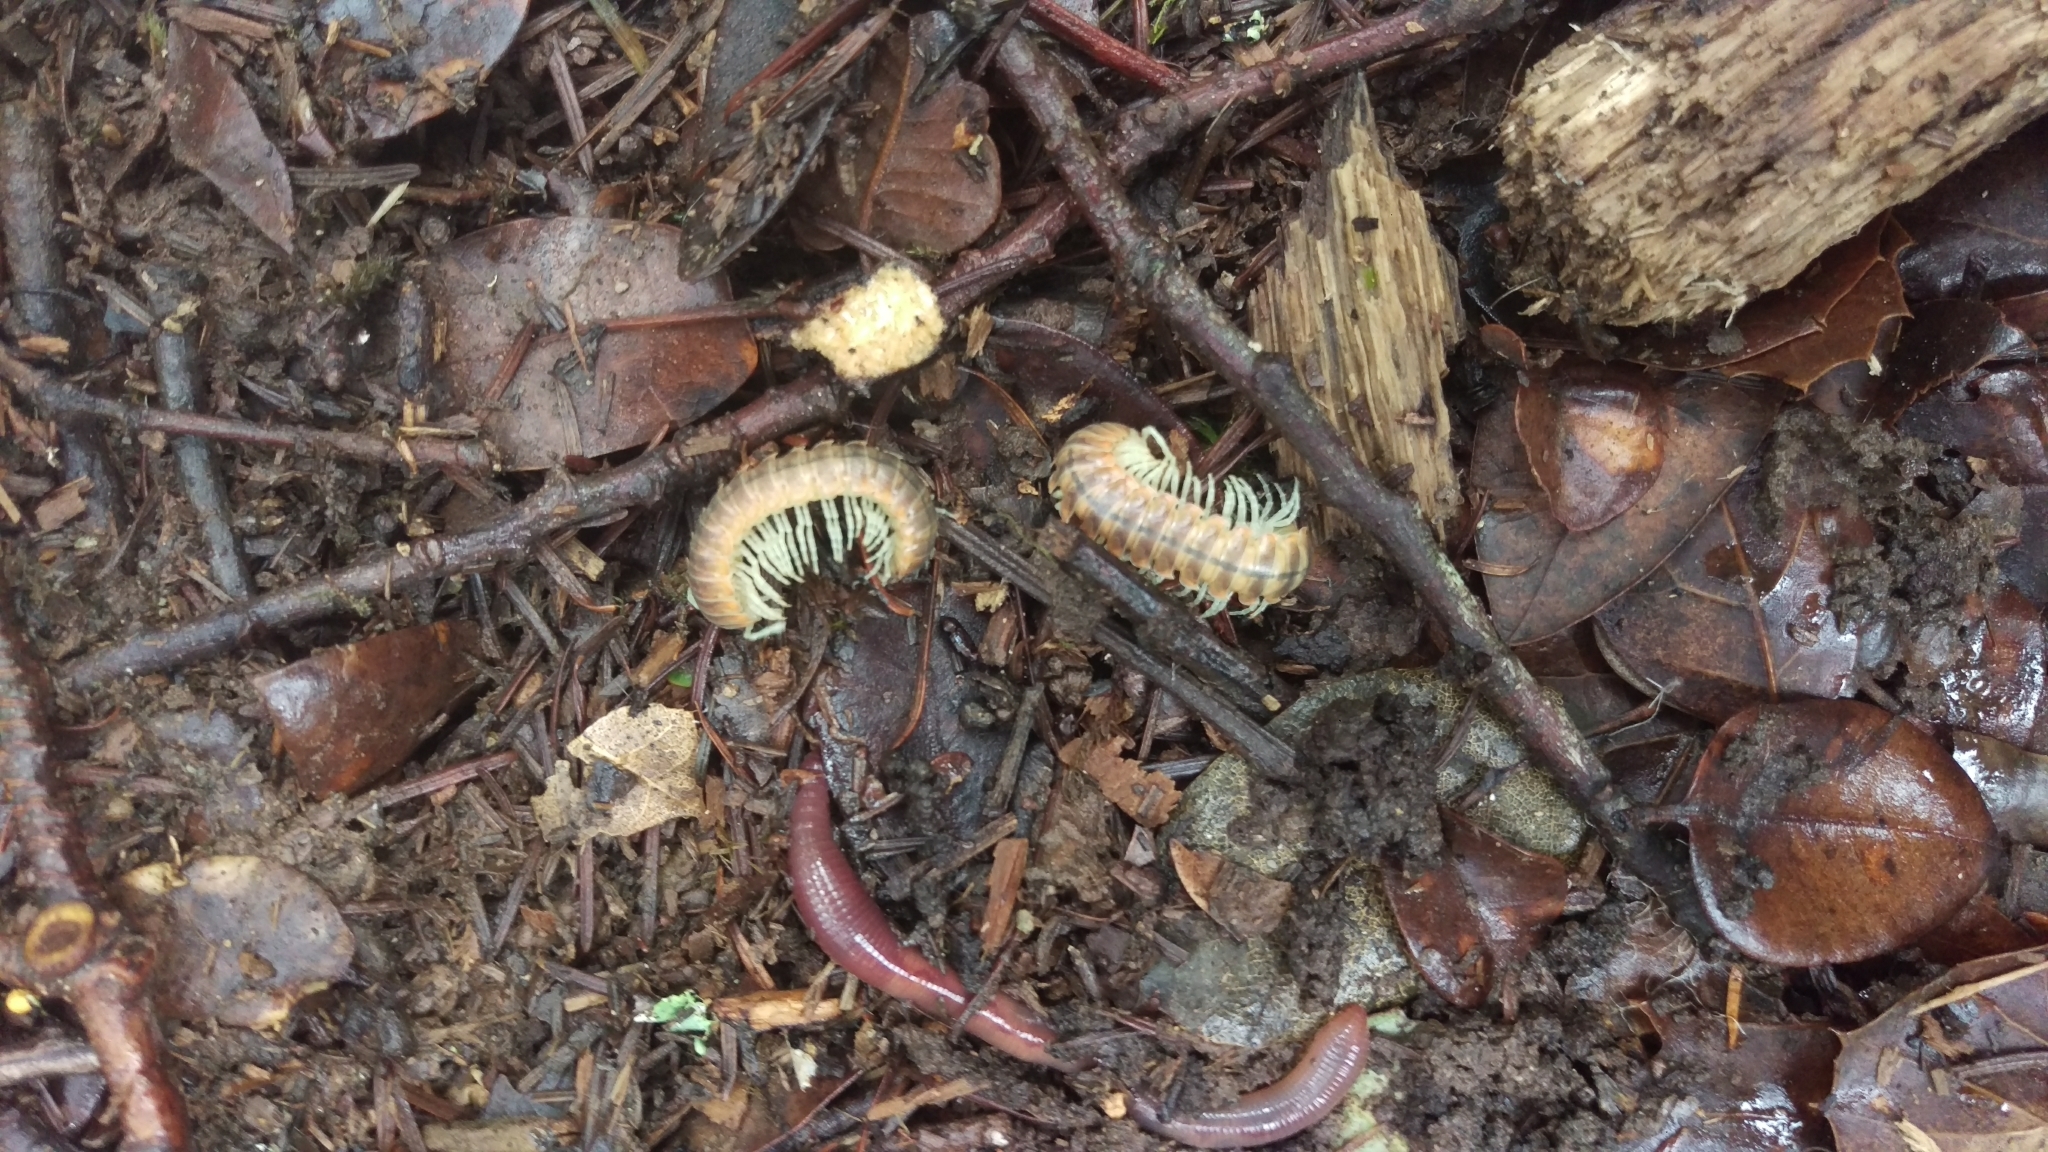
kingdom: Animalia
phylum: Arthropoda
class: Diplopoda
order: Polydesmida
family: Xystodesmidae
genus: Xystocheir
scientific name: Xystocheir dissecta
